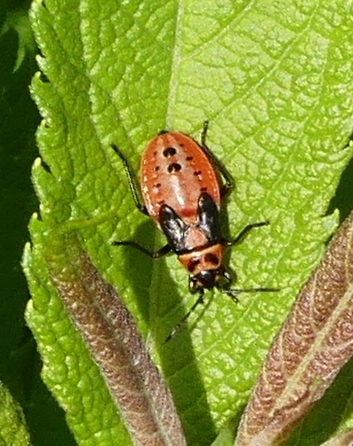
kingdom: Animalia
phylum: Arthropoda
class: Insecta
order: Hemiptera
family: Lygaeidae
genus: Lygaeus
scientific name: Lygaeus kalmii
